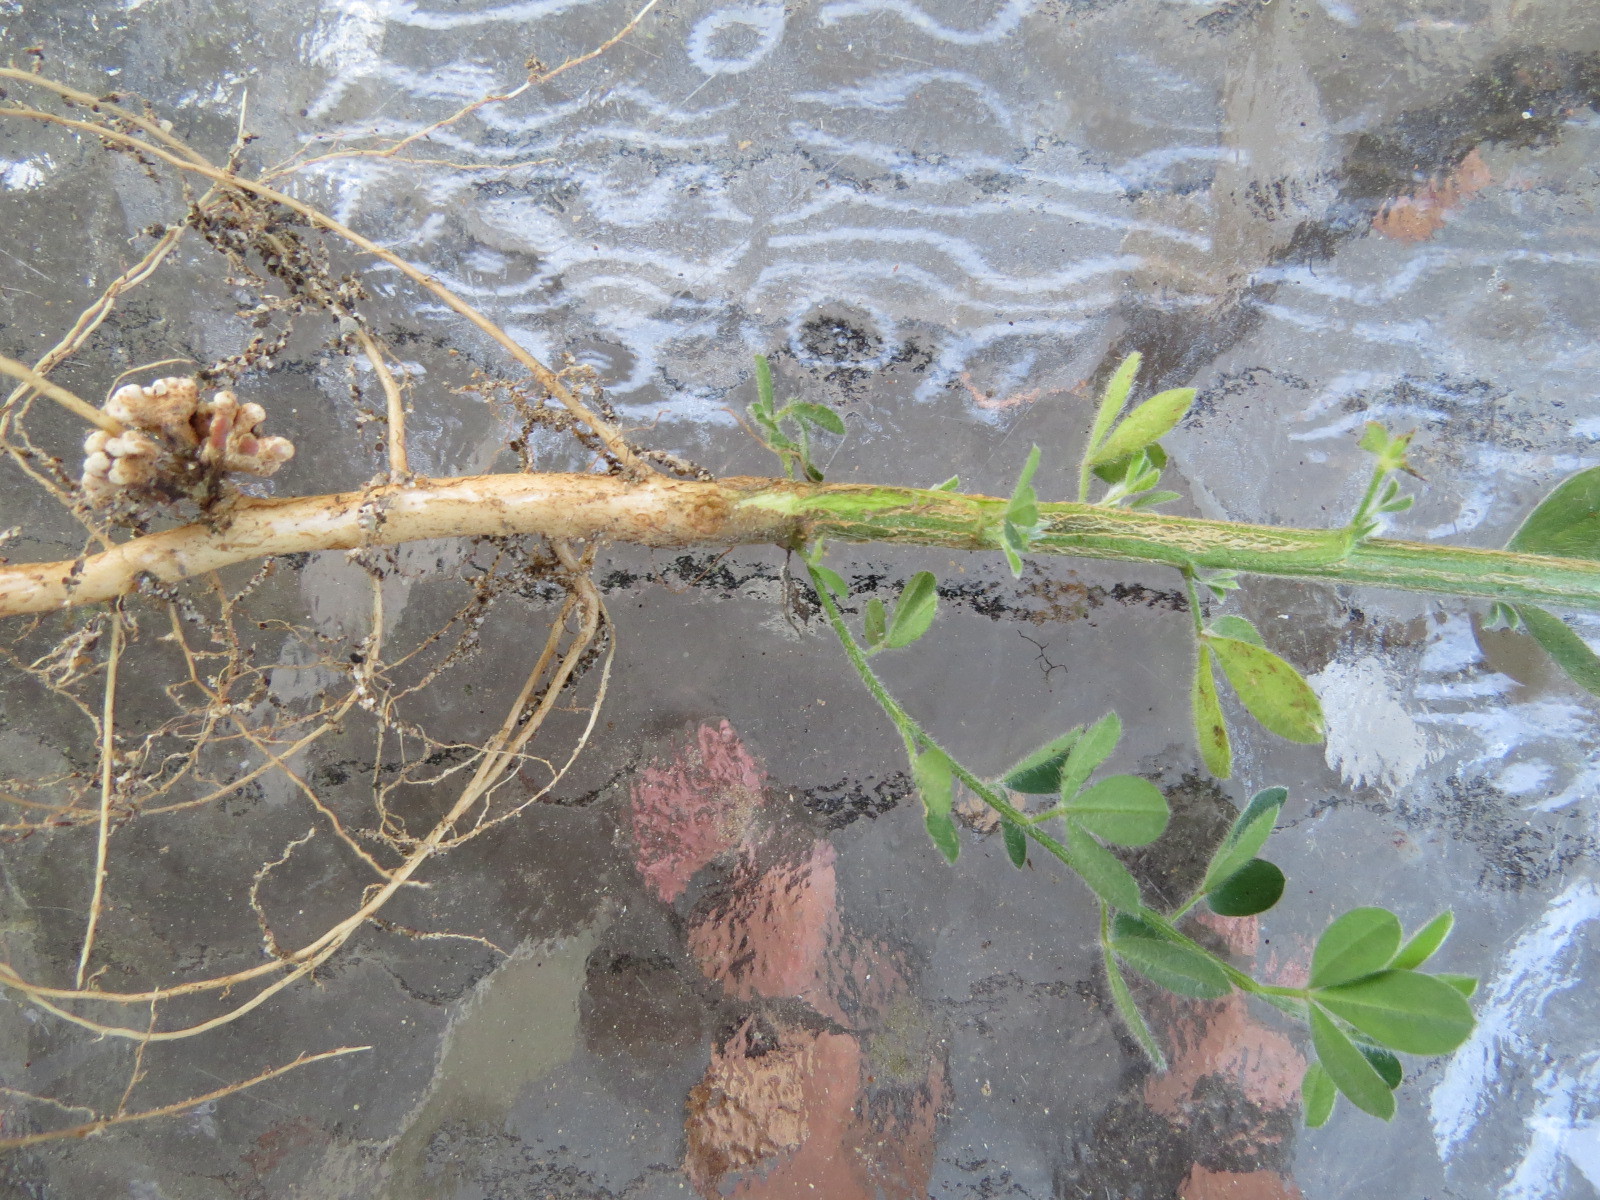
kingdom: Bacteria
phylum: Proteobacteria
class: Alphaproteobacteria
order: Rhizobiales
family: Rhizobiaceae
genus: Rhizobium
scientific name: Rhizobium leguminosarum
